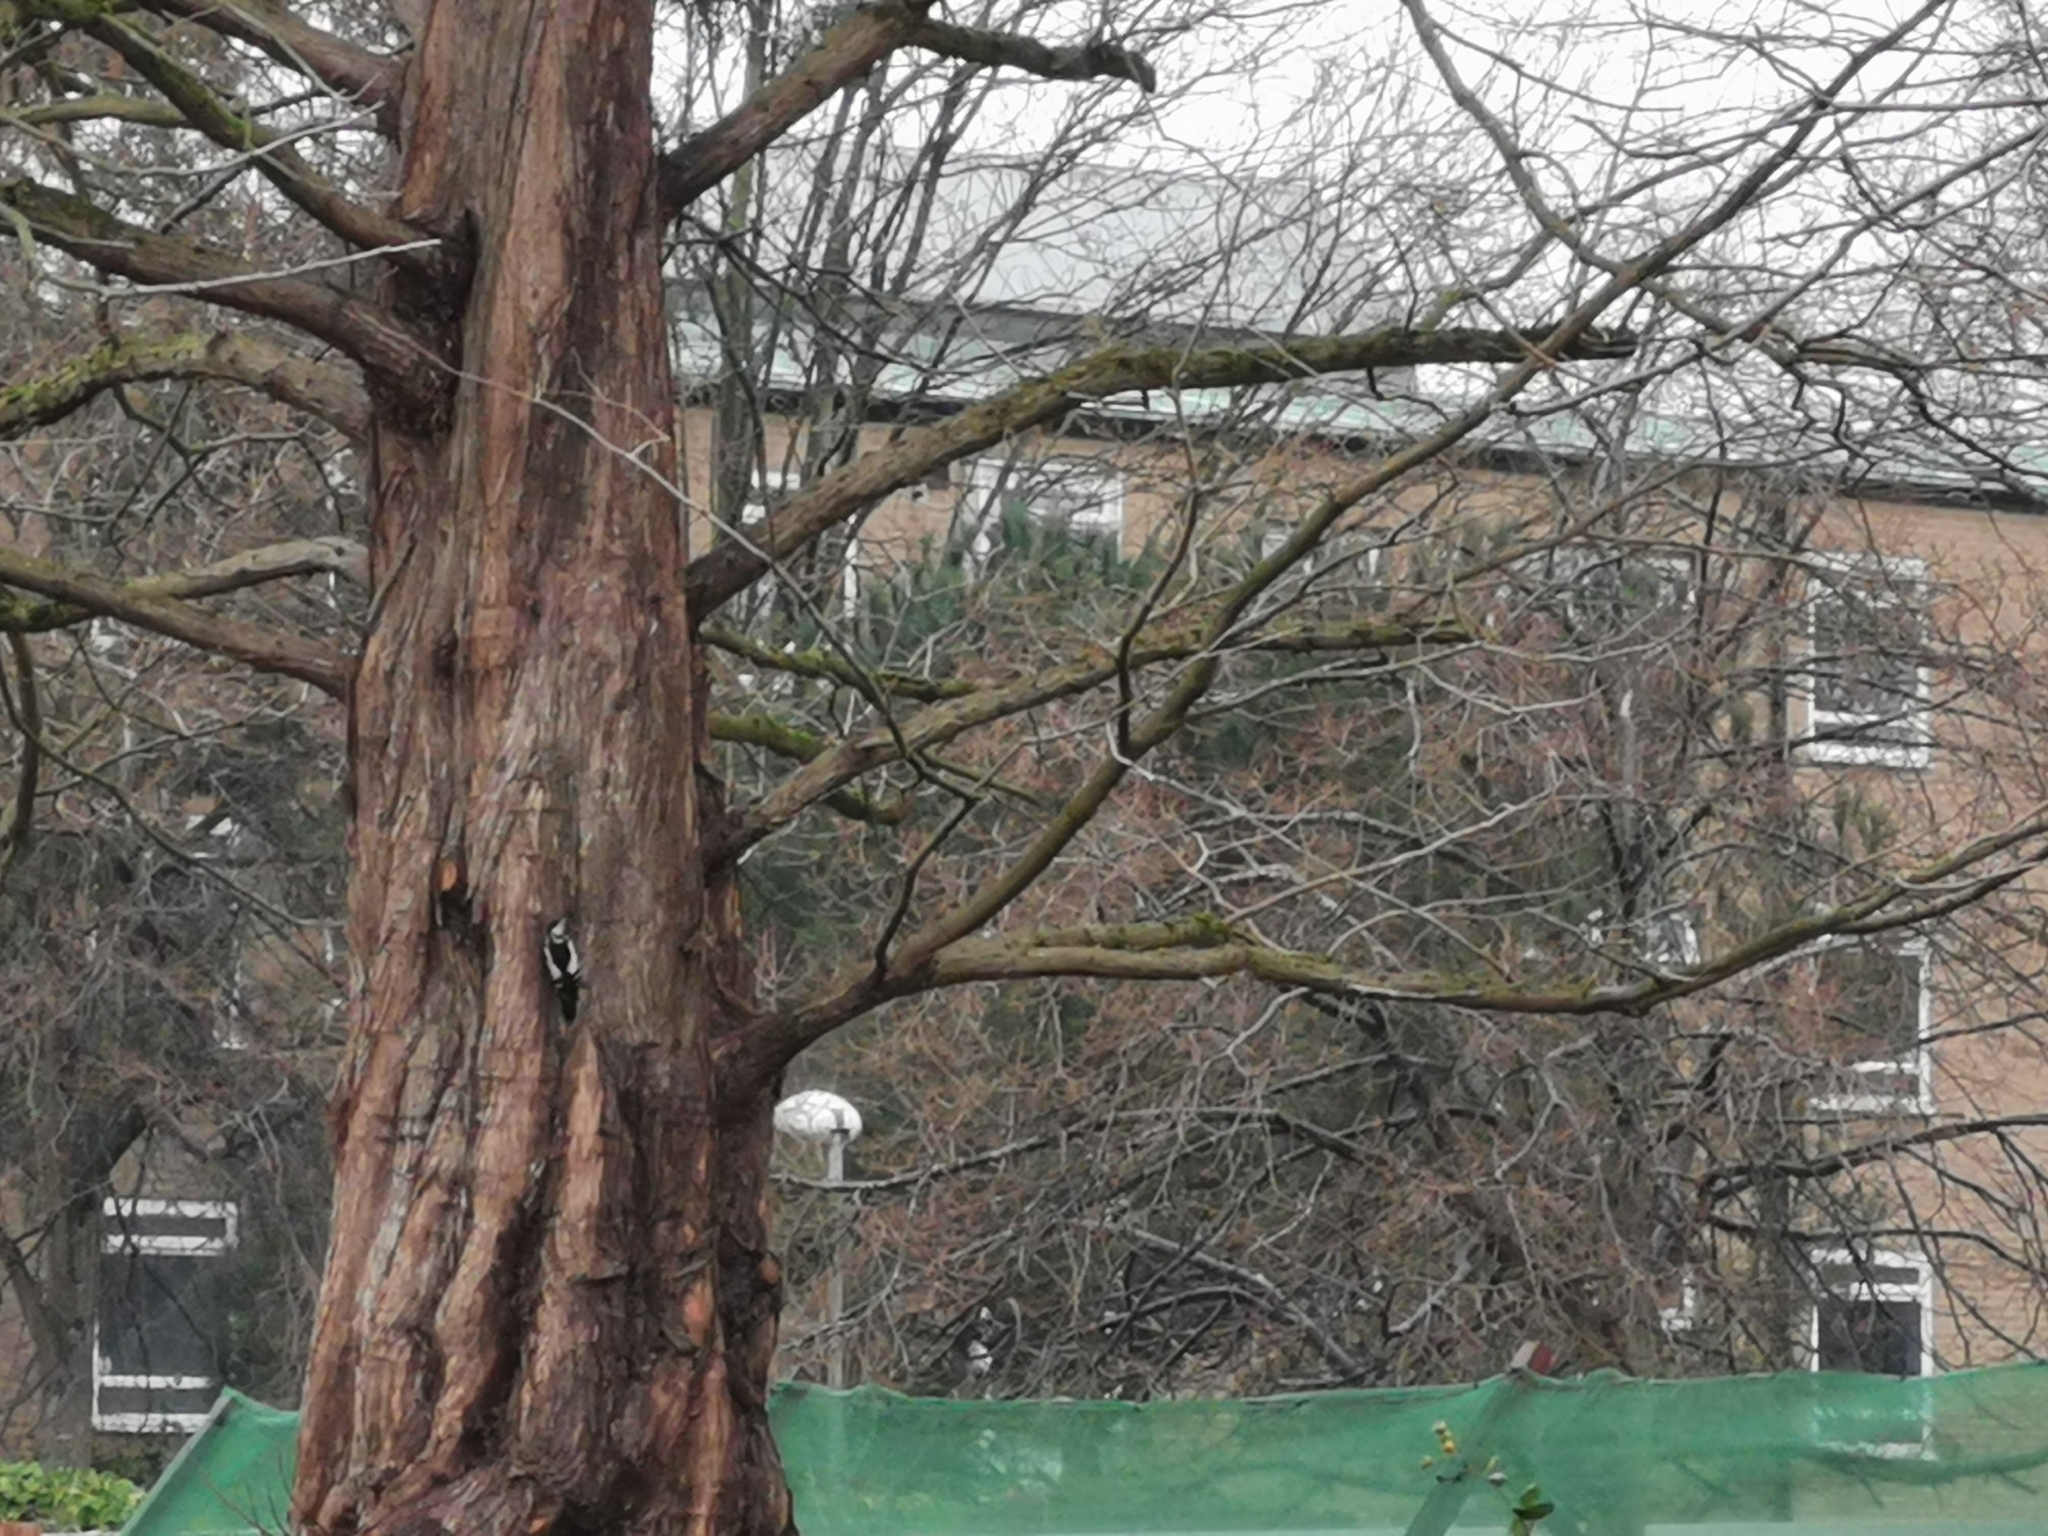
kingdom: Animalia
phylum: Chordata
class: Aves
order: Piciformes
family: Picidae
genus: Dendrocopos
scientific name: Dendrocopos major
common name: Great spotted woodpecker
